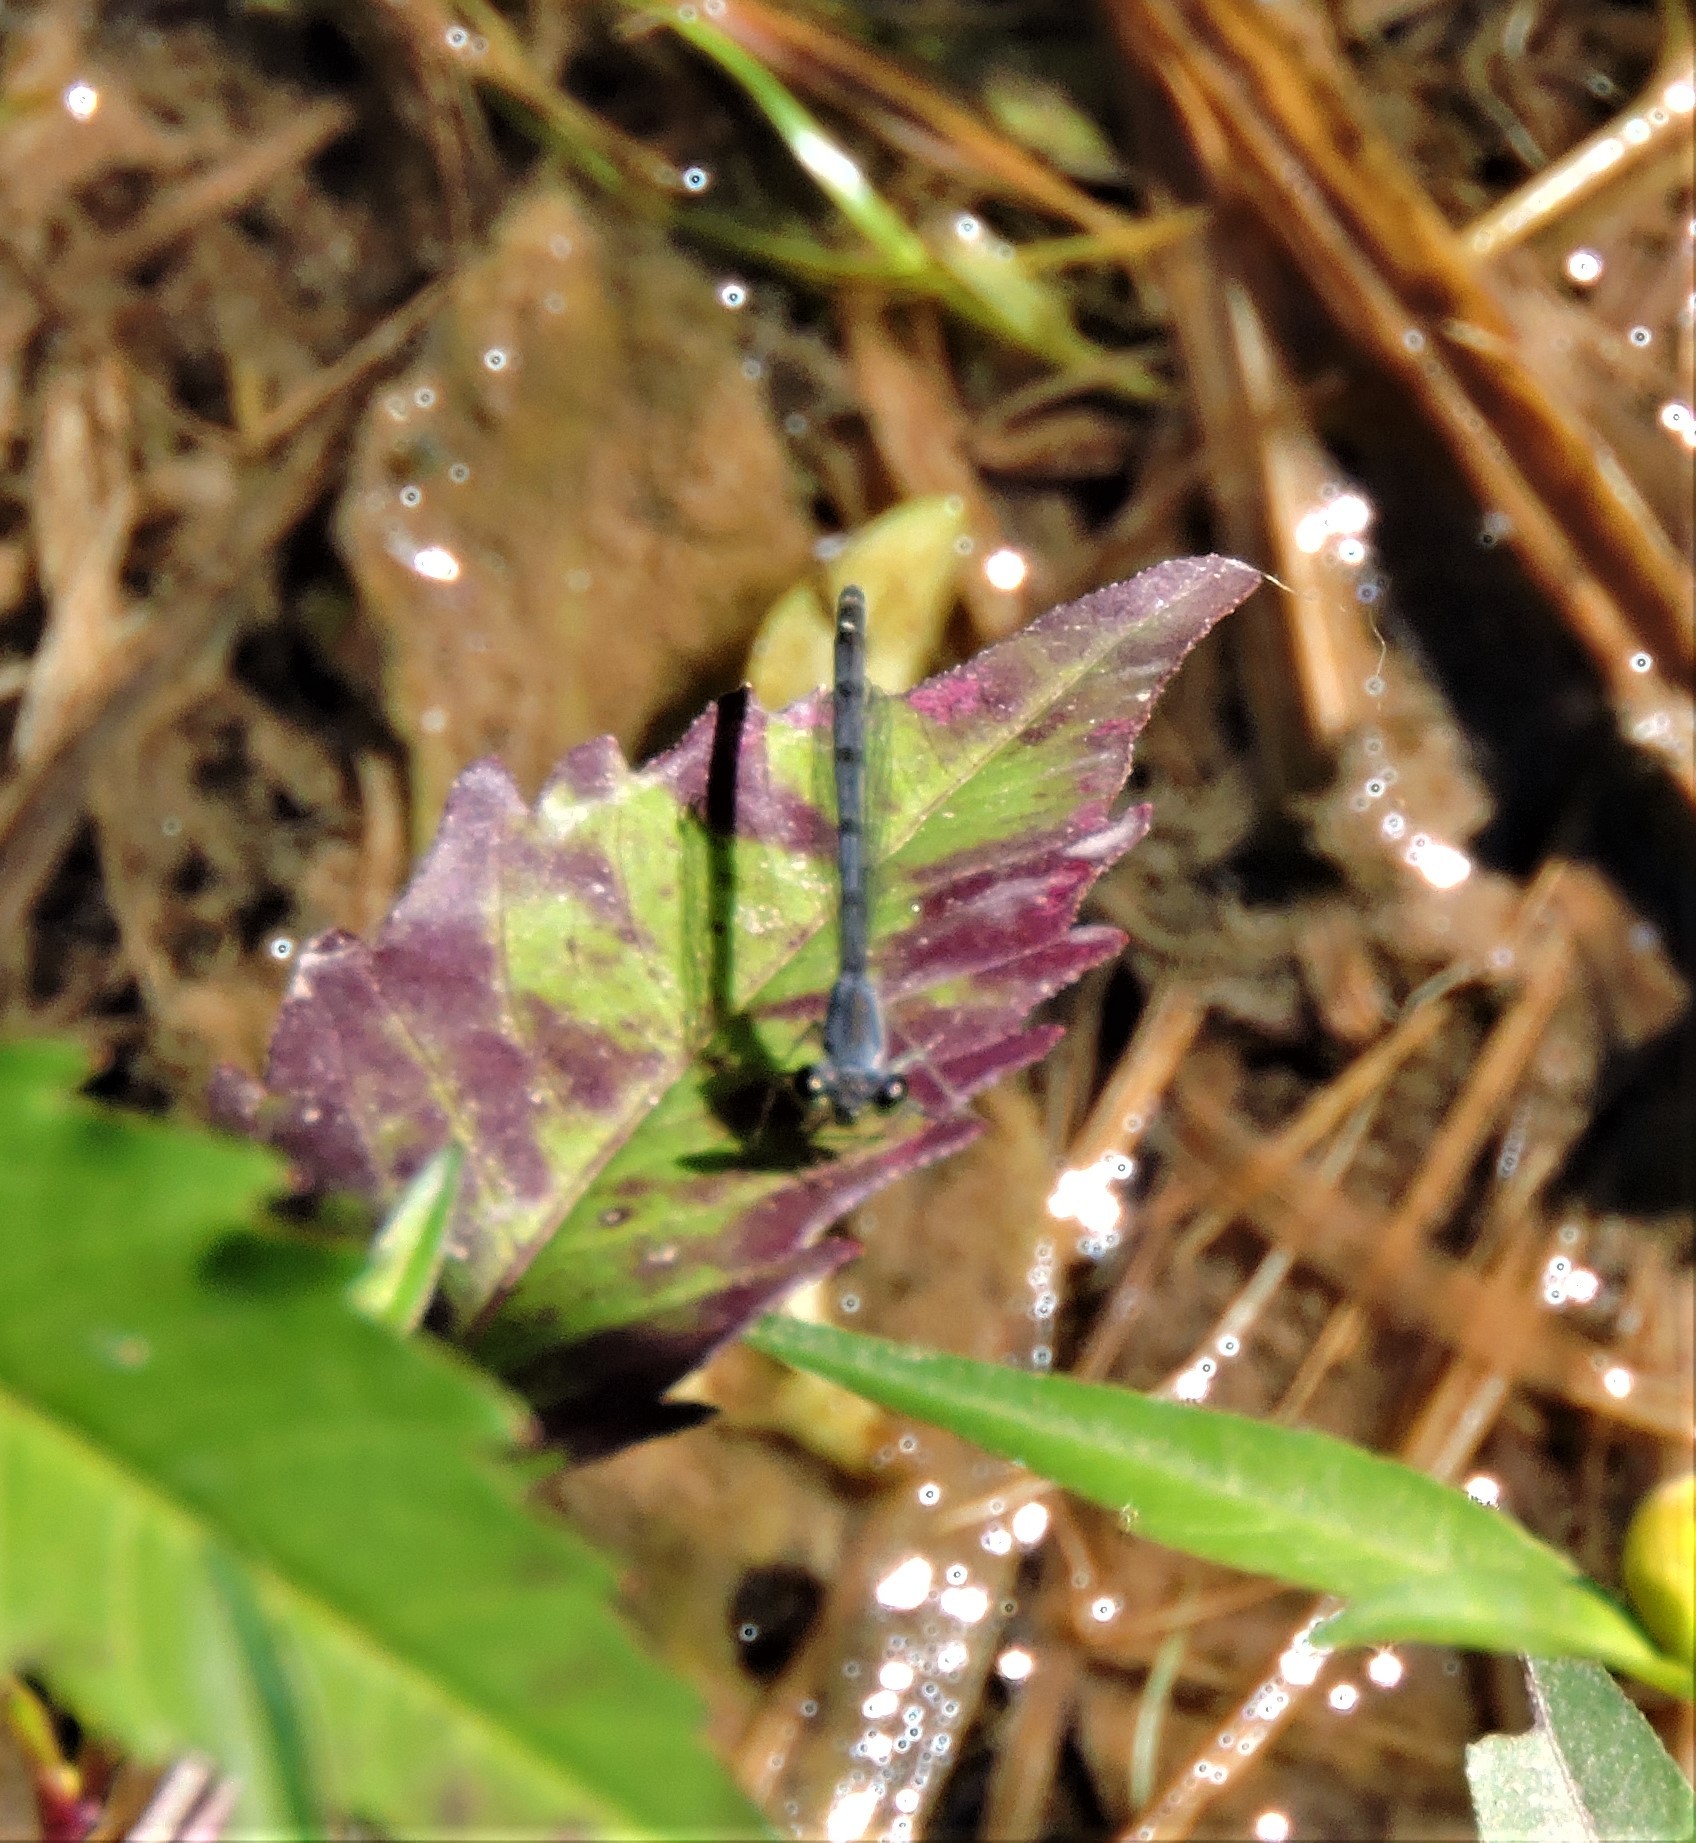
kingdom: Animalia
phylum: Arthropoda
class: Insecta
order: Odonata
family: Coenagrionidae
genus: Ischnura
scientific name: Ischnura verticalis
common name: Eastern forktail
